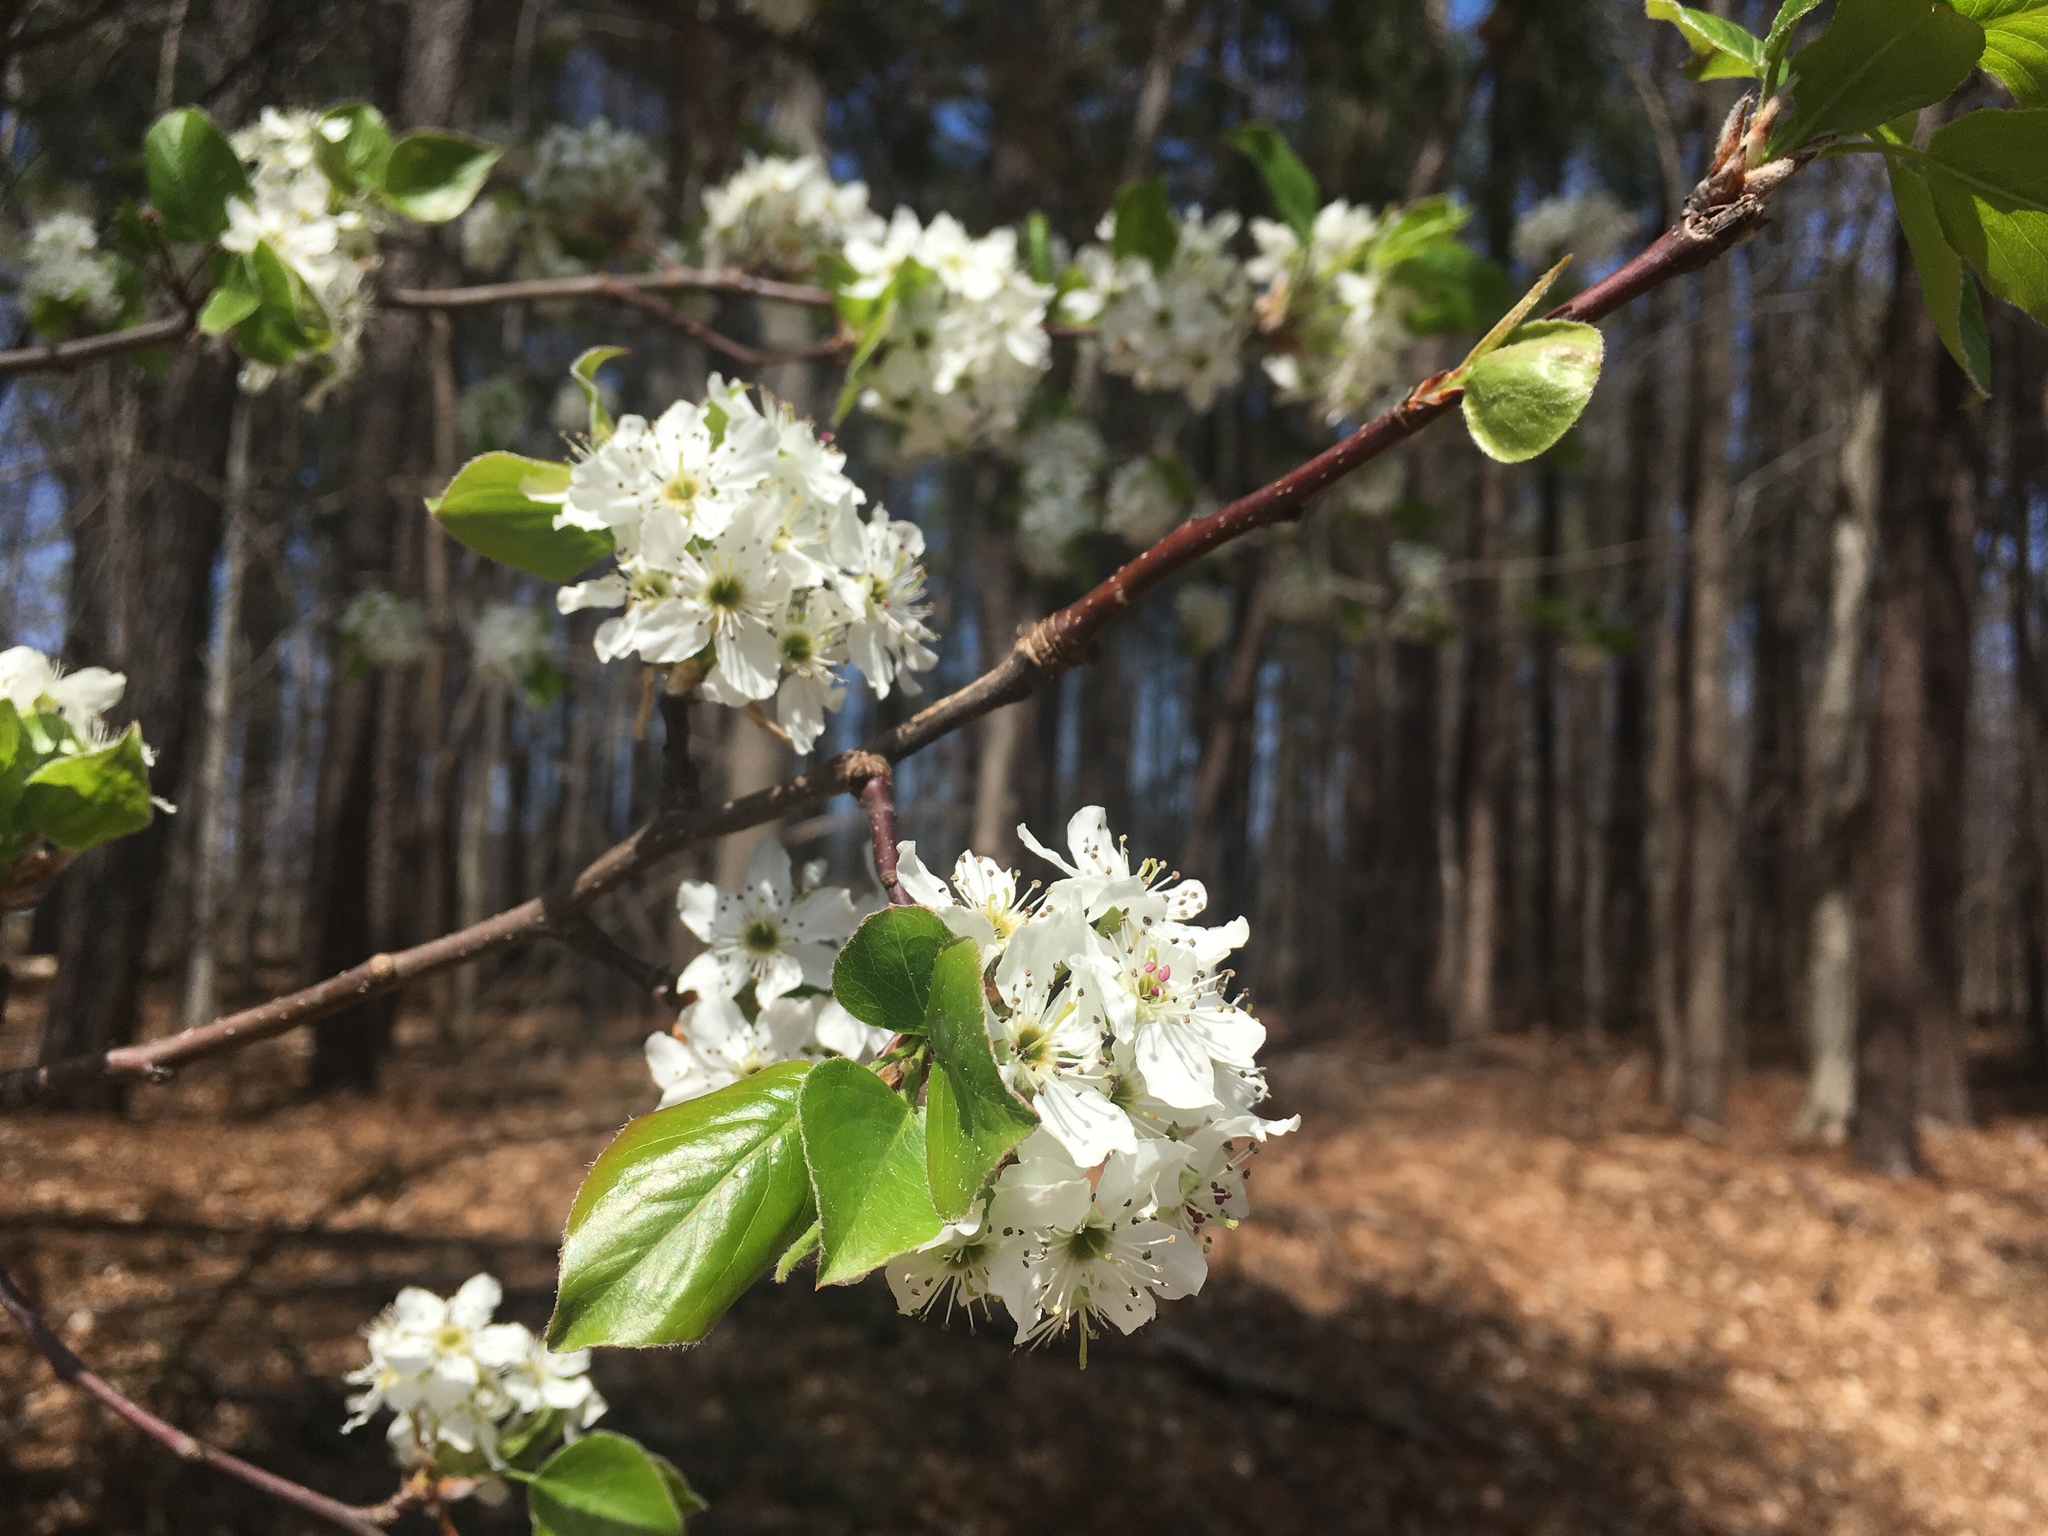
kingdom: Plantae
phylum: Tracheophyta
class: Magnoliopsida
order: Rosales
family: Rosaceae
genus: Pyrus
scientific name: Pyrus calleryana
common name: Callery pear
